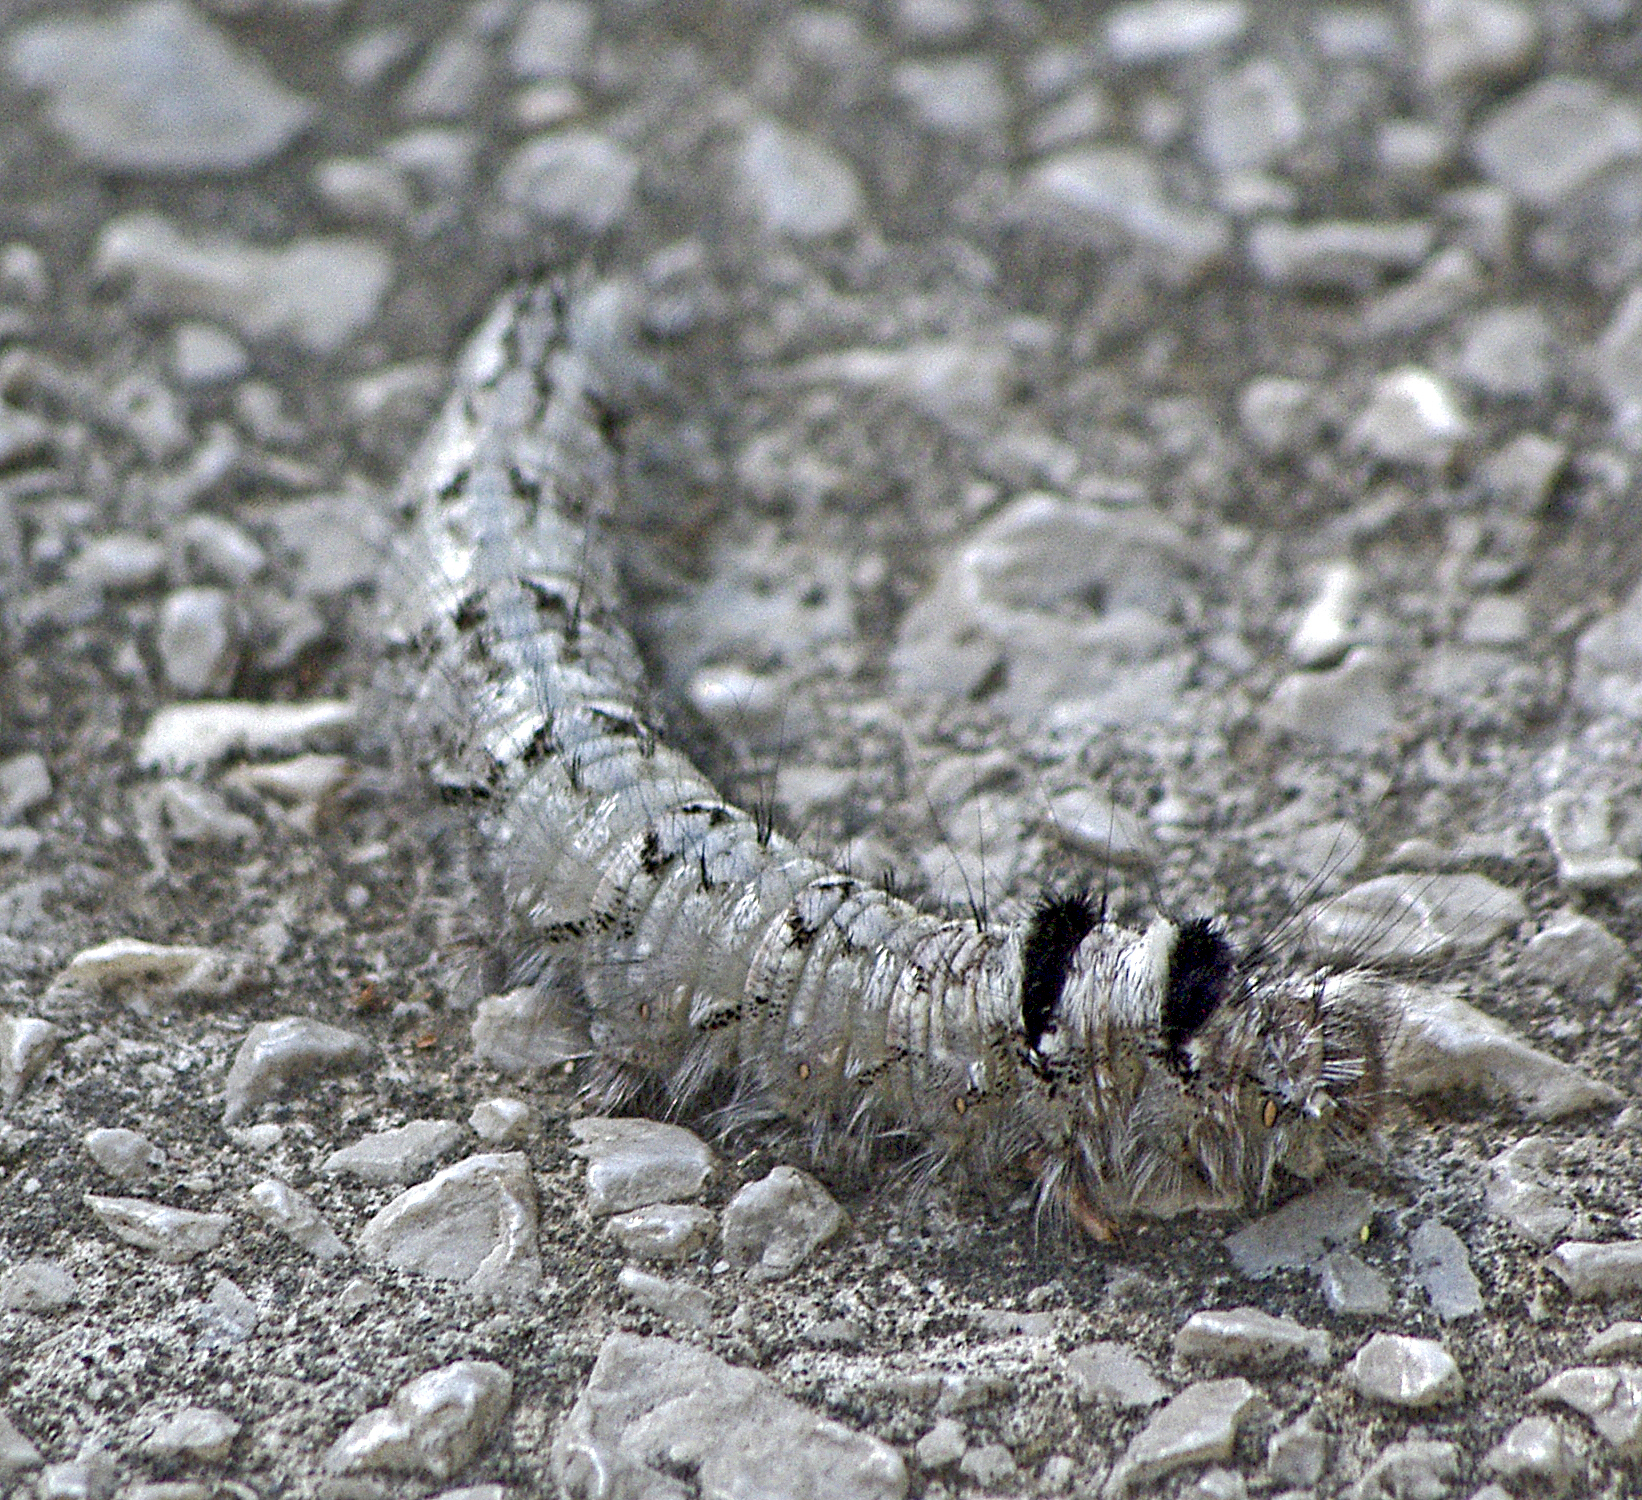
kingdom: Animalia
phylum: Arthropoda
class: Insecta
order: Lepidoptera
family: Lasiocampidae
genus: Gastropacha
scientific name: Gastropacha quercifolia
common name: Lappet
